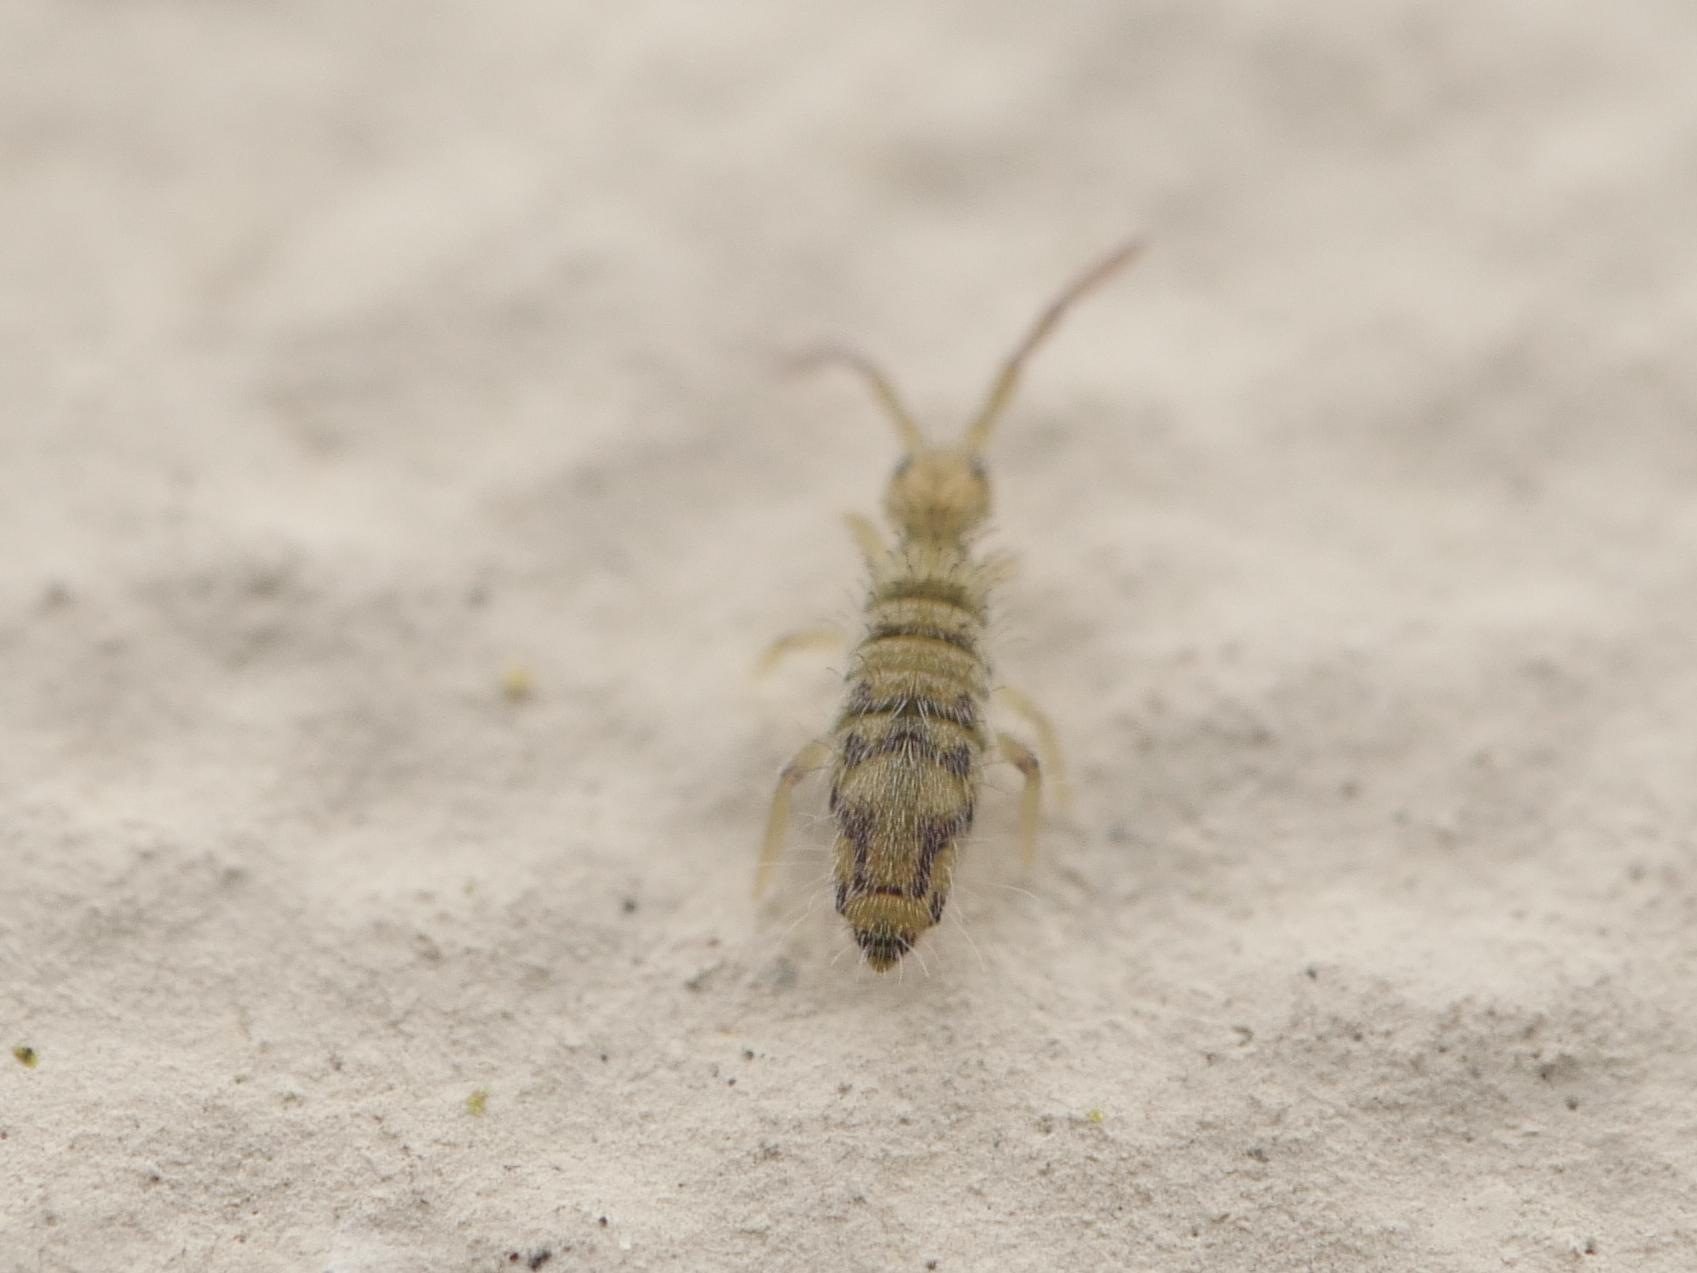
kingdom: Animalia
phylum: Arthropoda
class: Collembola
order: Entomobryomorpha
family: Entomobryidae
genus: Entomobrya
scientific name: Entomobrya nivalis
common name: Cosmopolitan springtail
